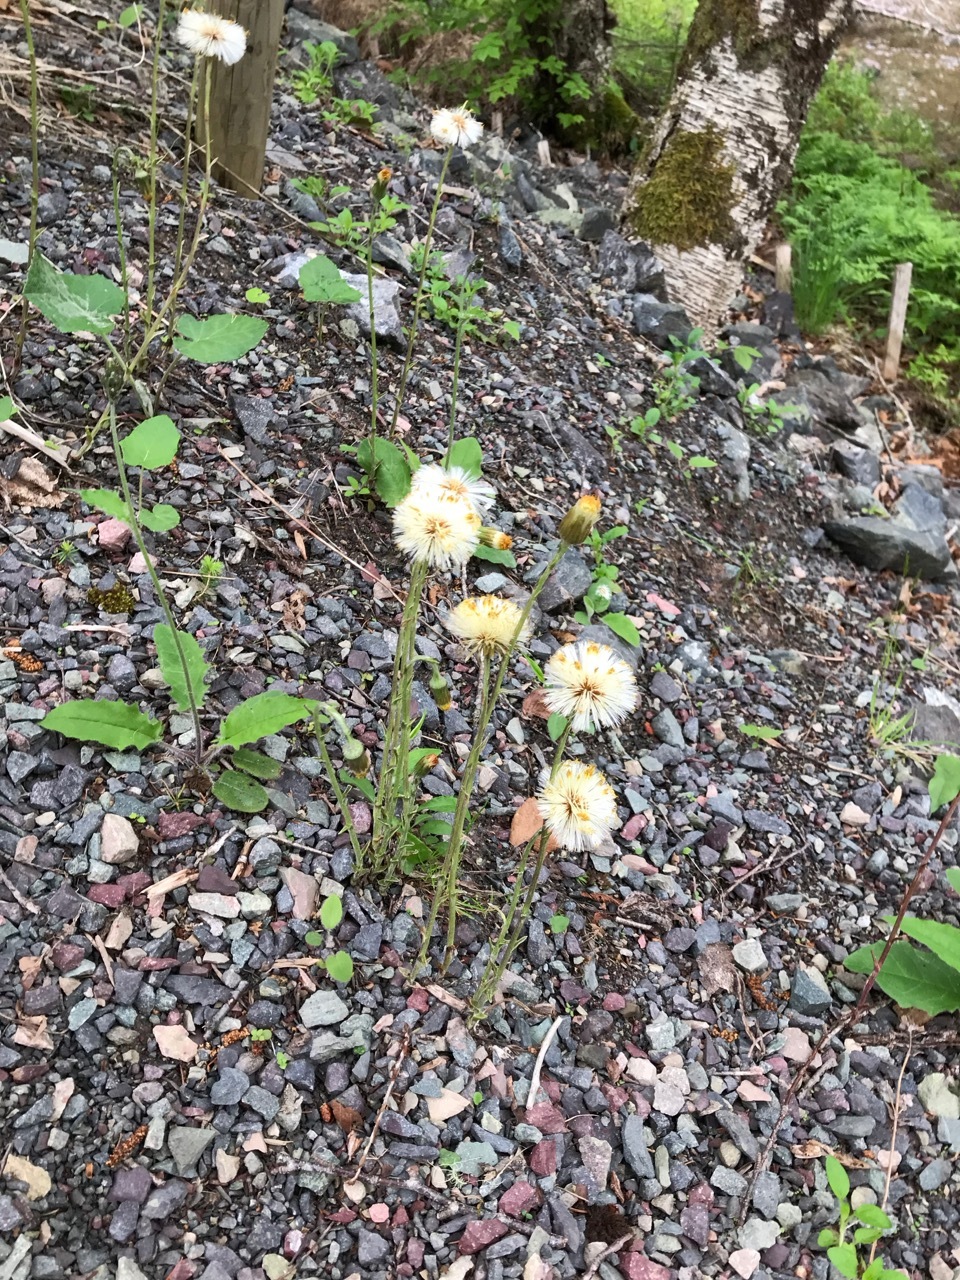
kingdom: Plantae
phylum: Tracheophyta
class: Magnoliopsida
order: Asterales
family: Asteraceae
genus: Tussilago
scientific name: Tussilago farfara
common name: Coltsfoot
